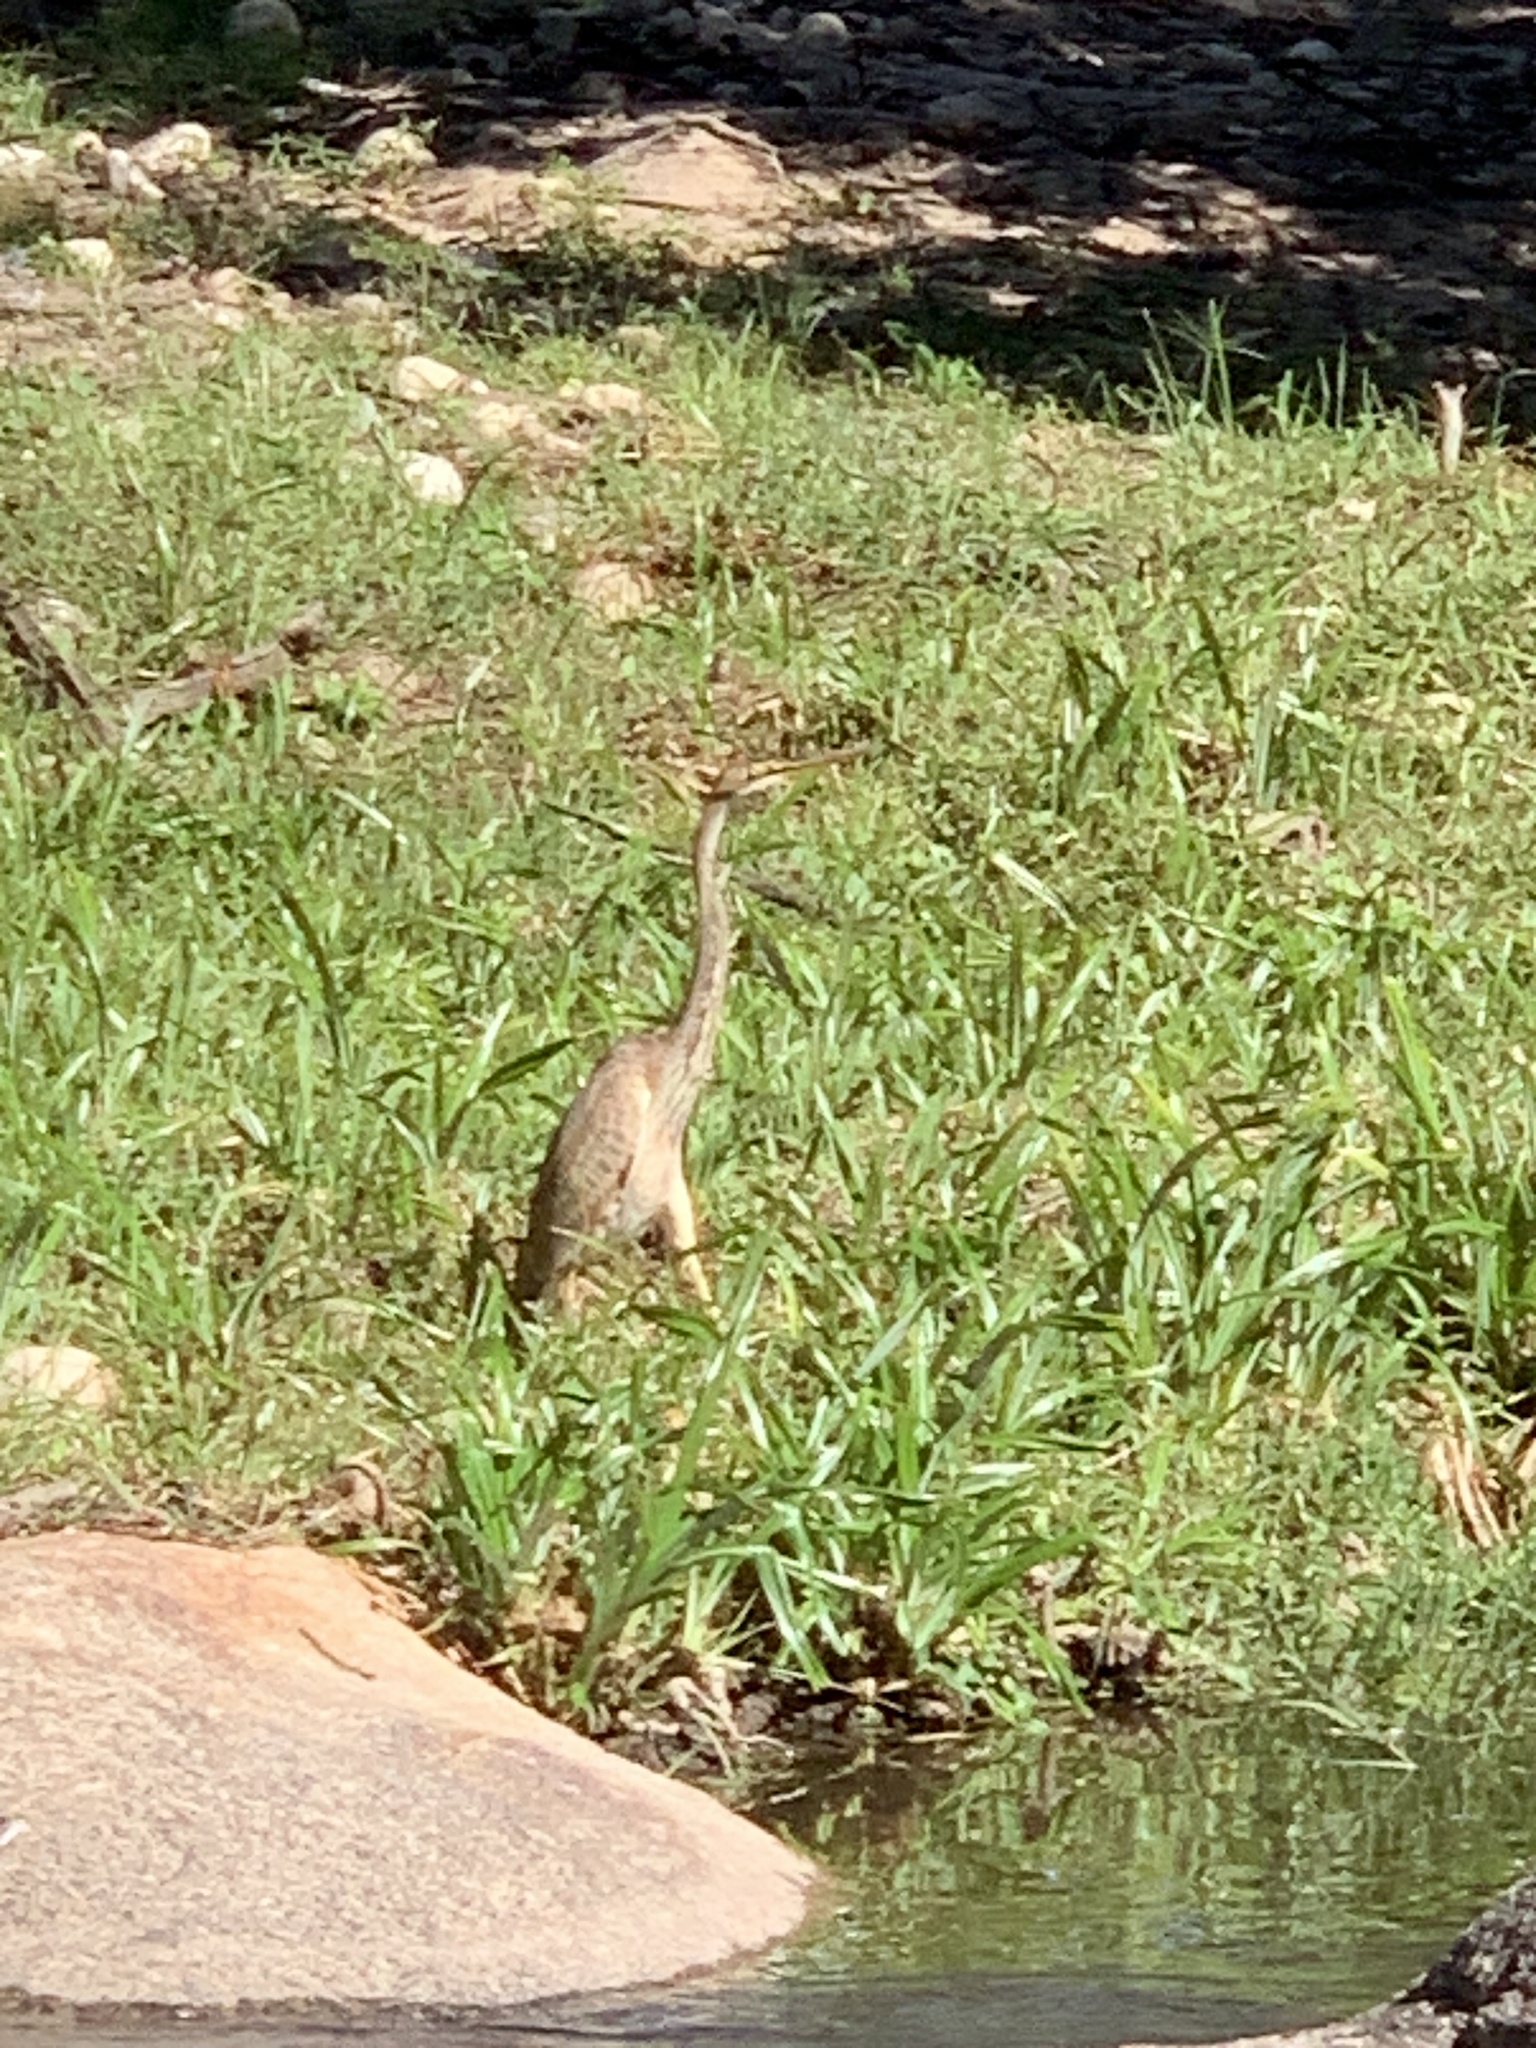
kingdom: Animalia
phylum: Chordata
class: Aves
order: Pelecaniformes
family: Ardeidae
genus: Ardea
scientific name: Ardea purpurea
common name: Purple heron
